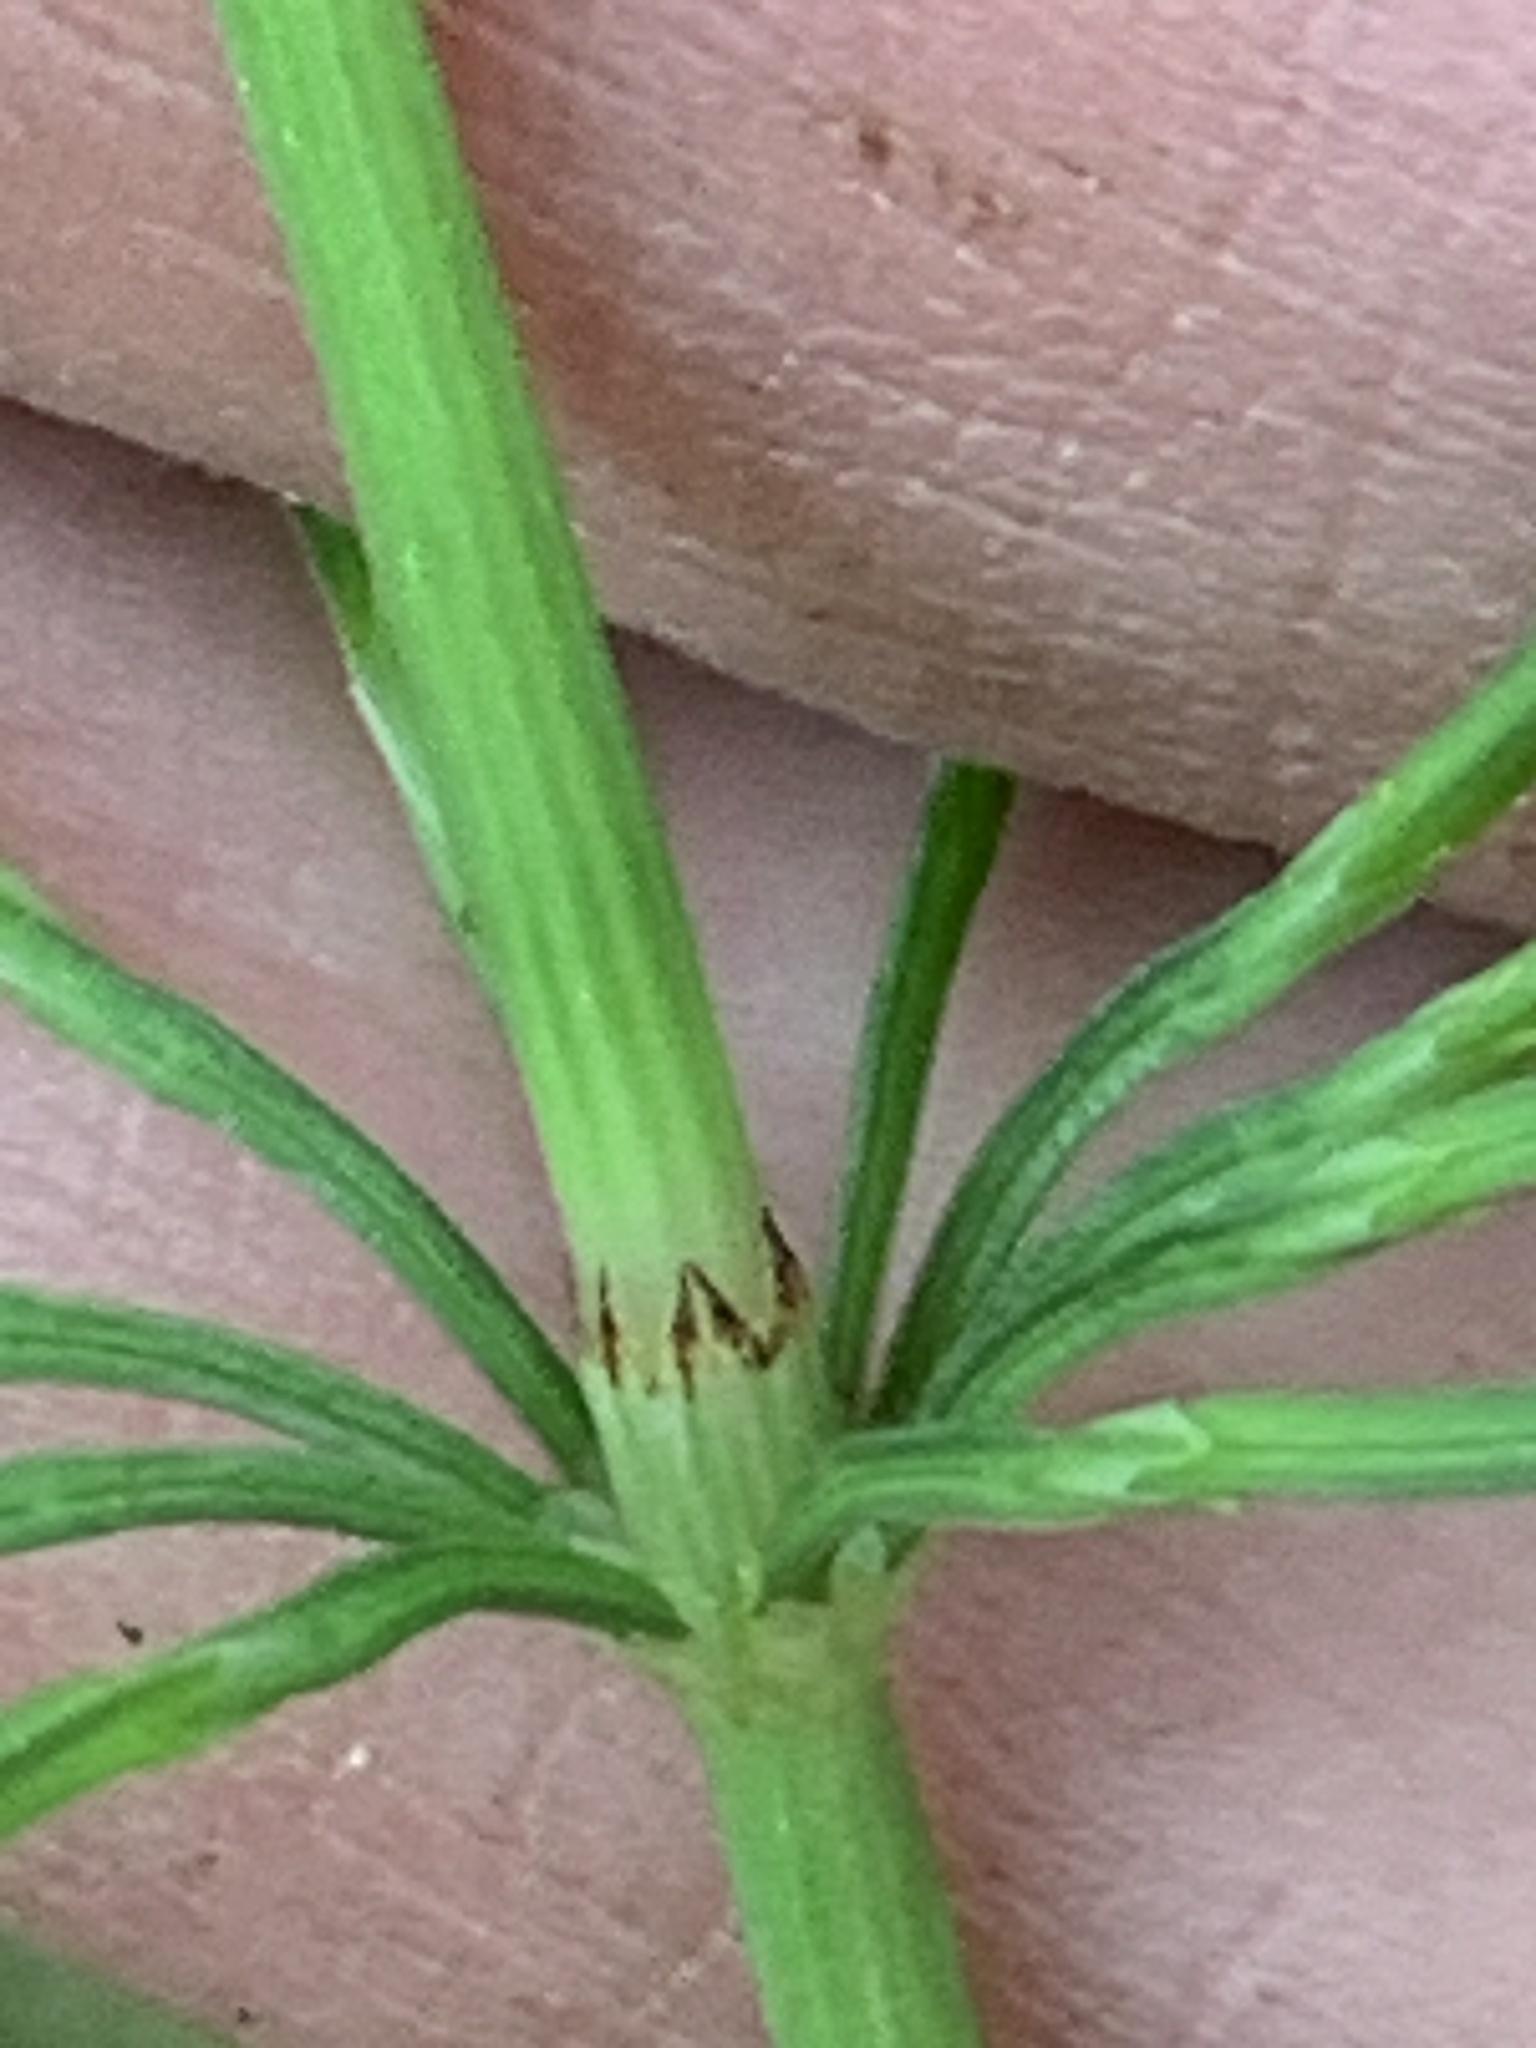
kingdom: Plantae
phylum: Tracheophyta
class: Polypodiopsida
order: Equisetales
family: Equisetaceae
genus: Equisetum
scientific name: Equisetum arvense
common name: Field horsetail
